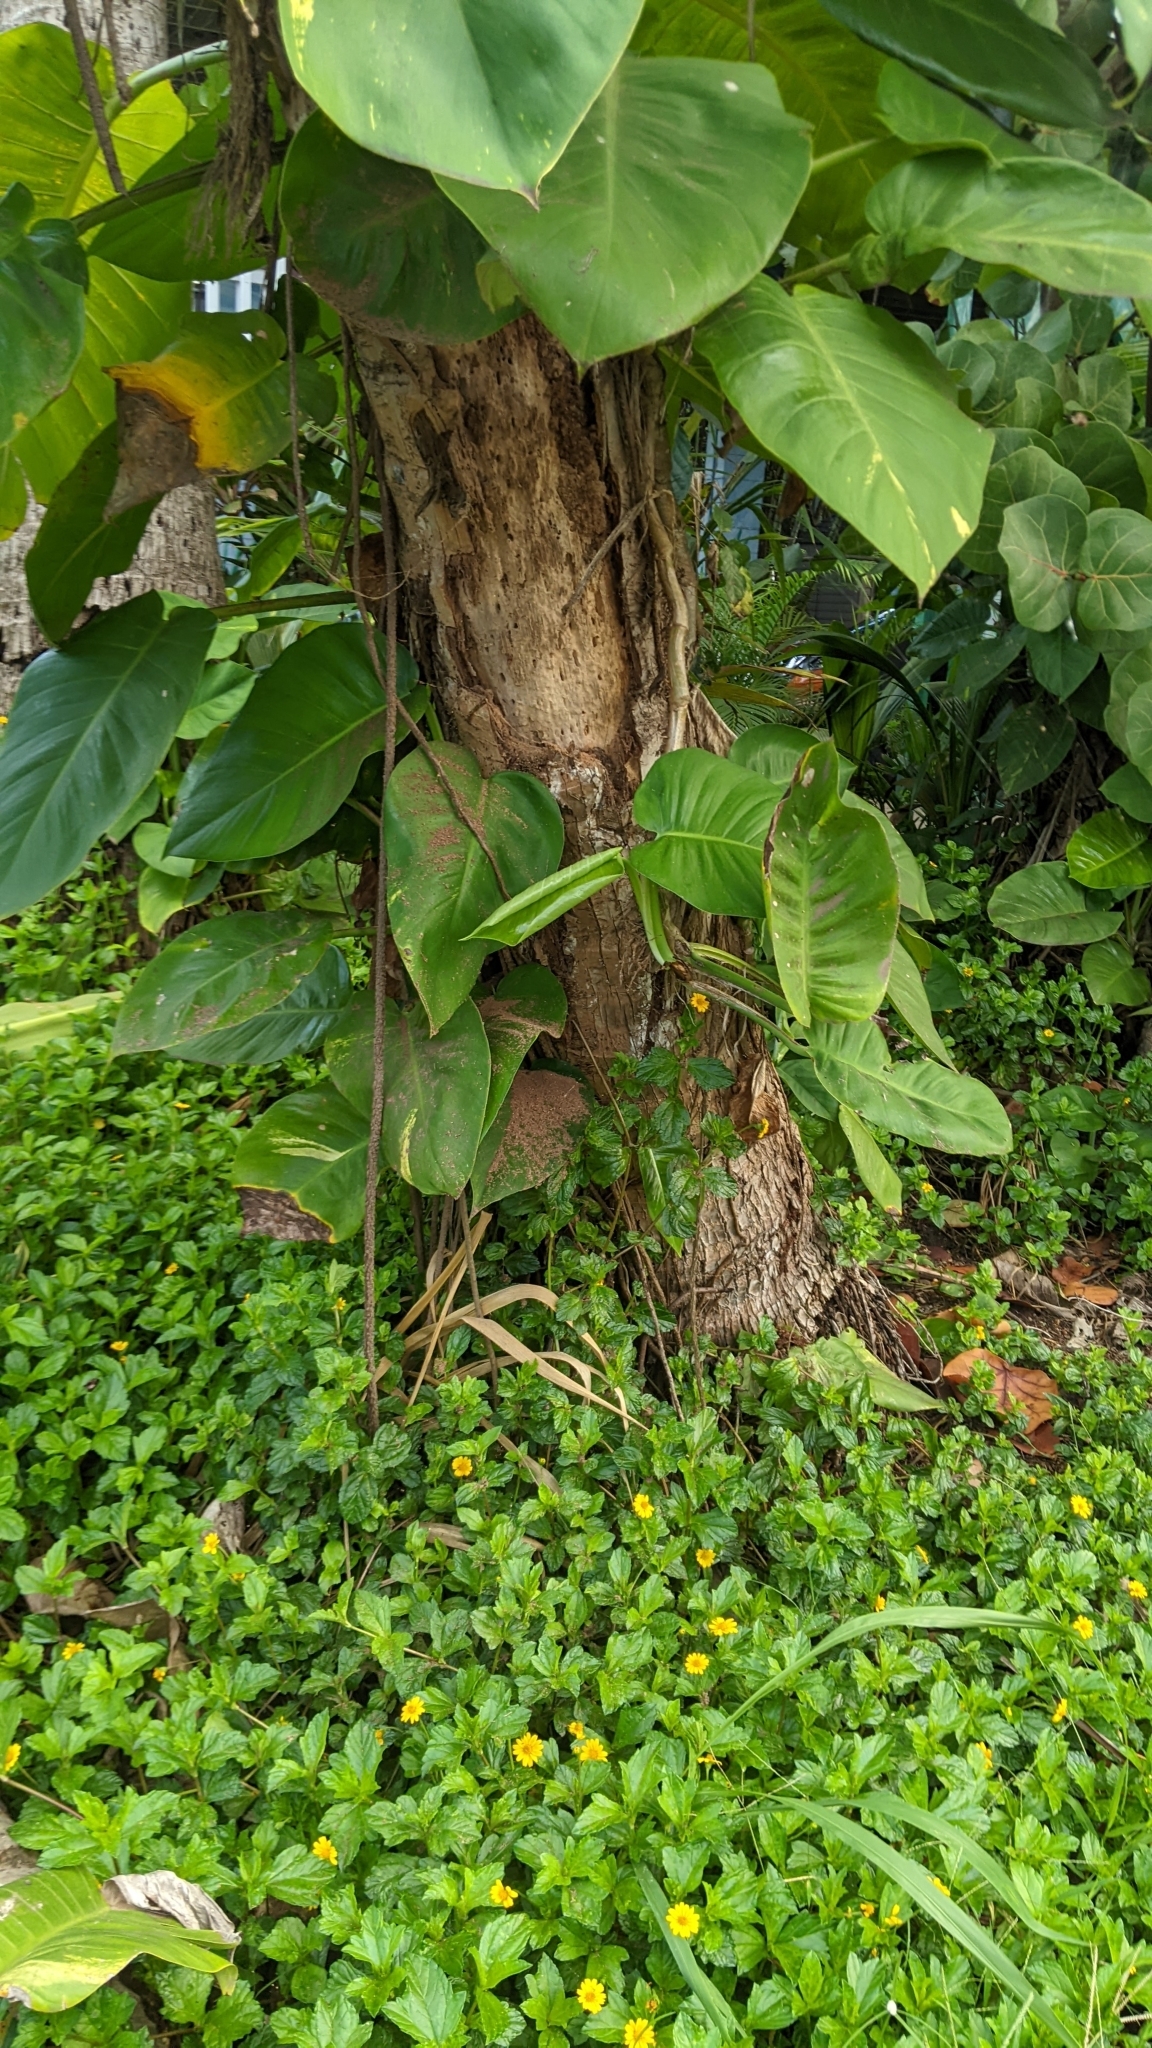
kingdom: Plantae
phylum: Tracheophyta
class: Liliopsida
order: Alismatales
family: Araceae
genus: Epipremnum
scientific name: Epipremnum aureum
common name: Golden hunter's-robe
